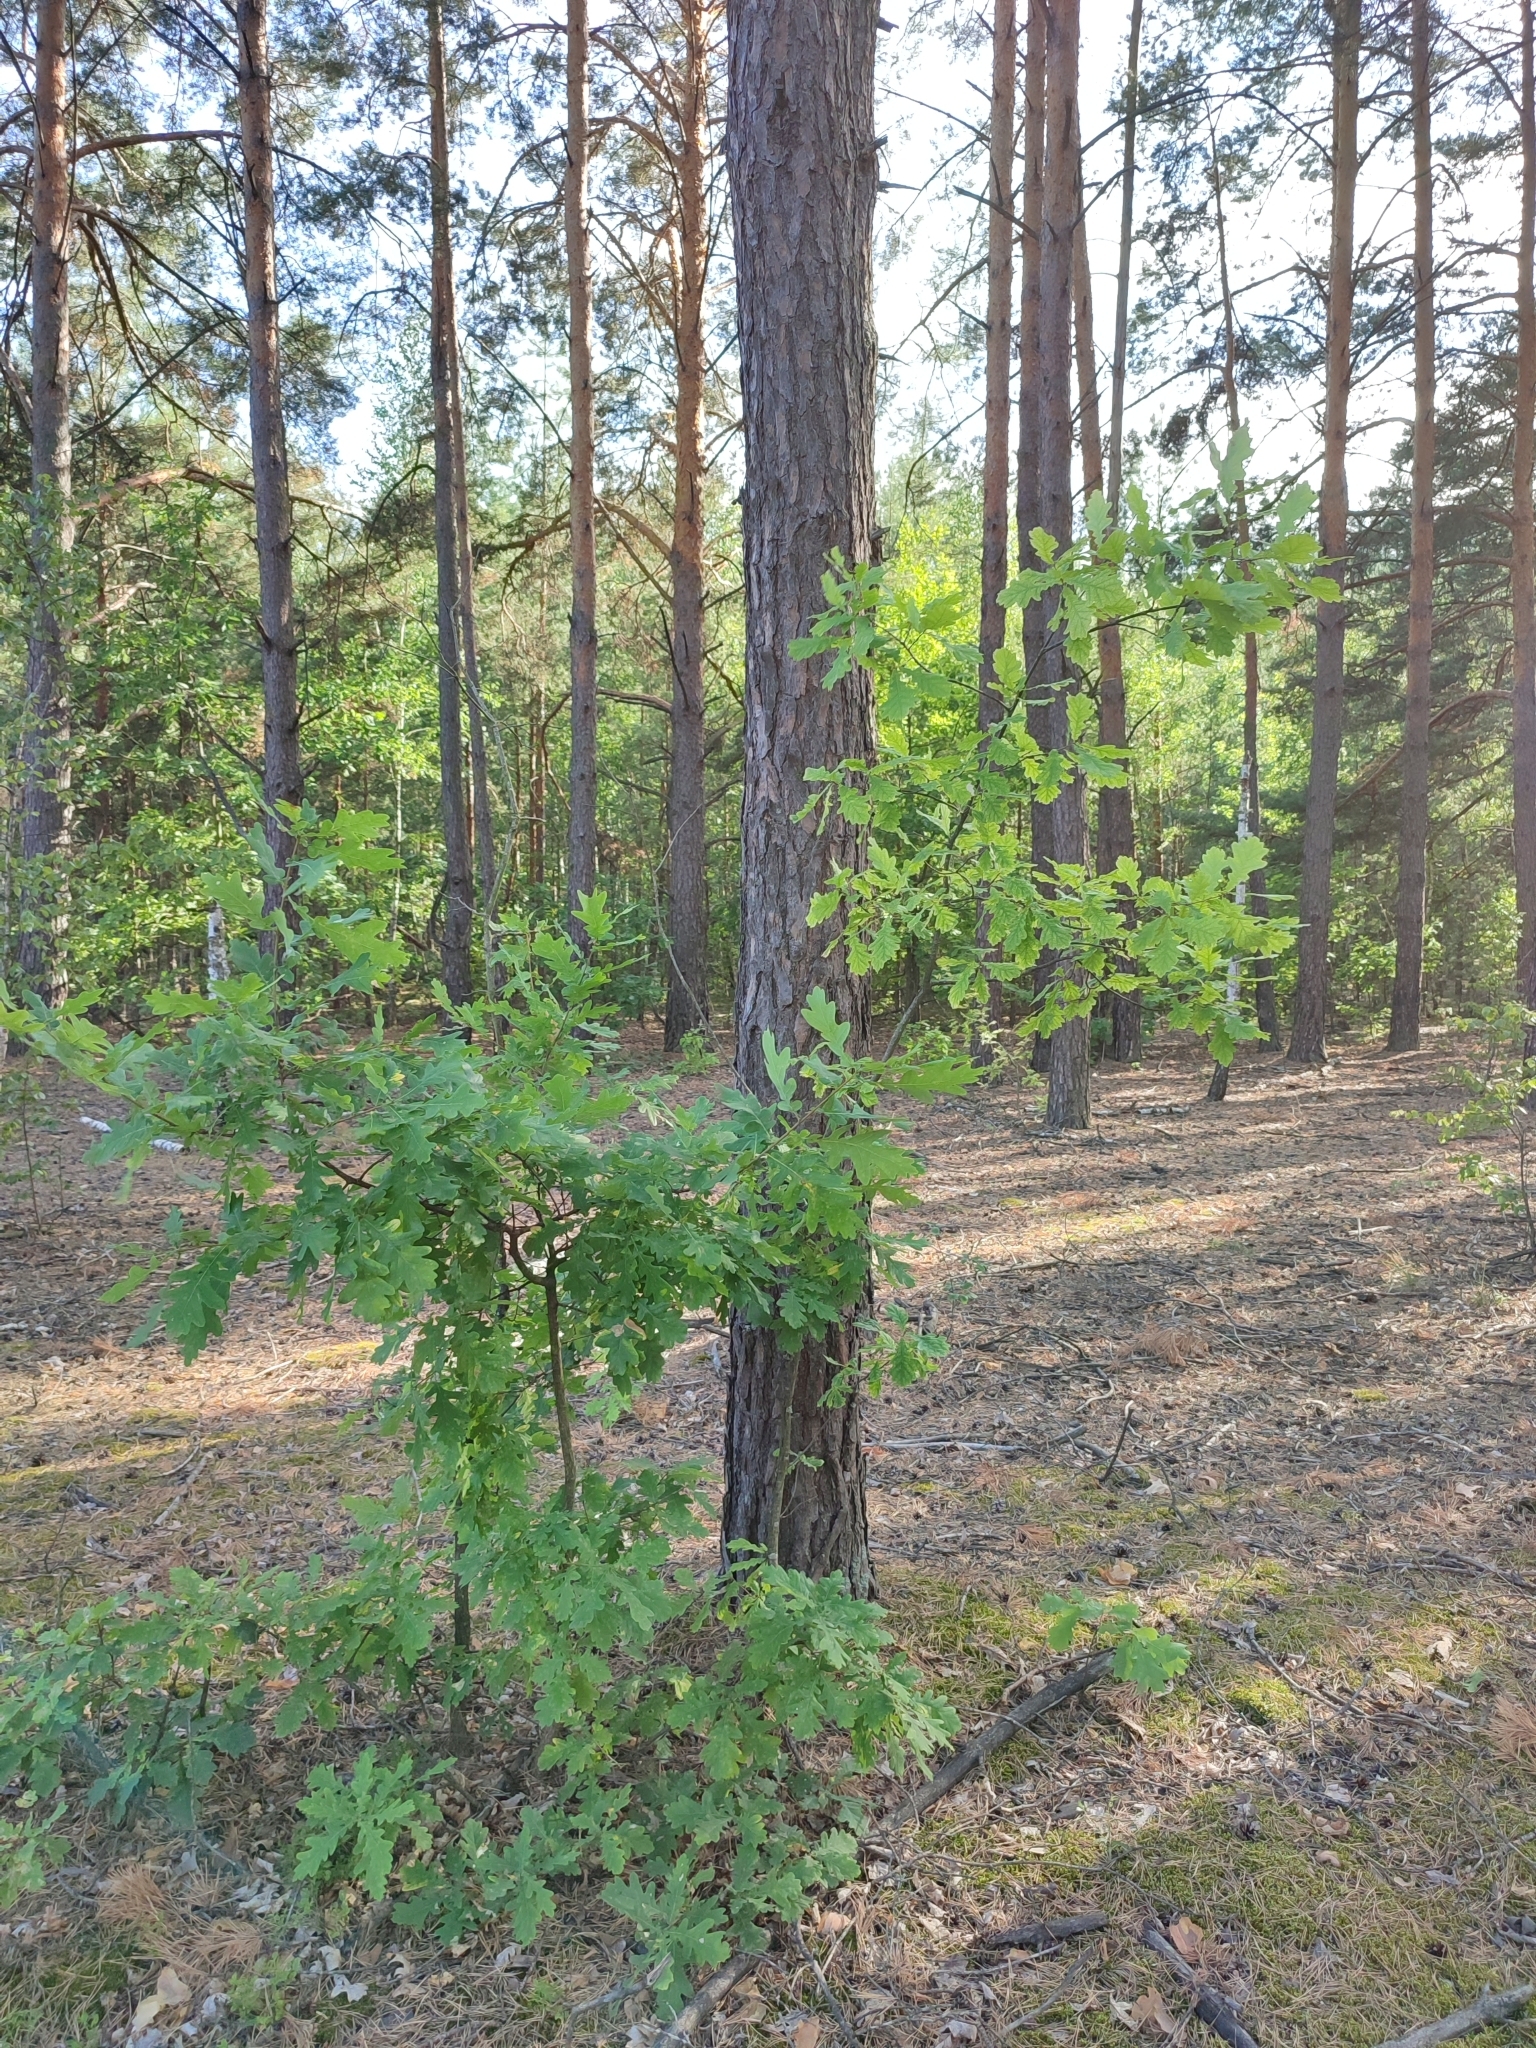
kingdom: Plantae
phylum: Tracheophyta
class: Magnoliopsida
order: Fagales
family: Fagaceae
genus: Quercus
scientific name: Quercus robur
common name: Pedunculate oak
